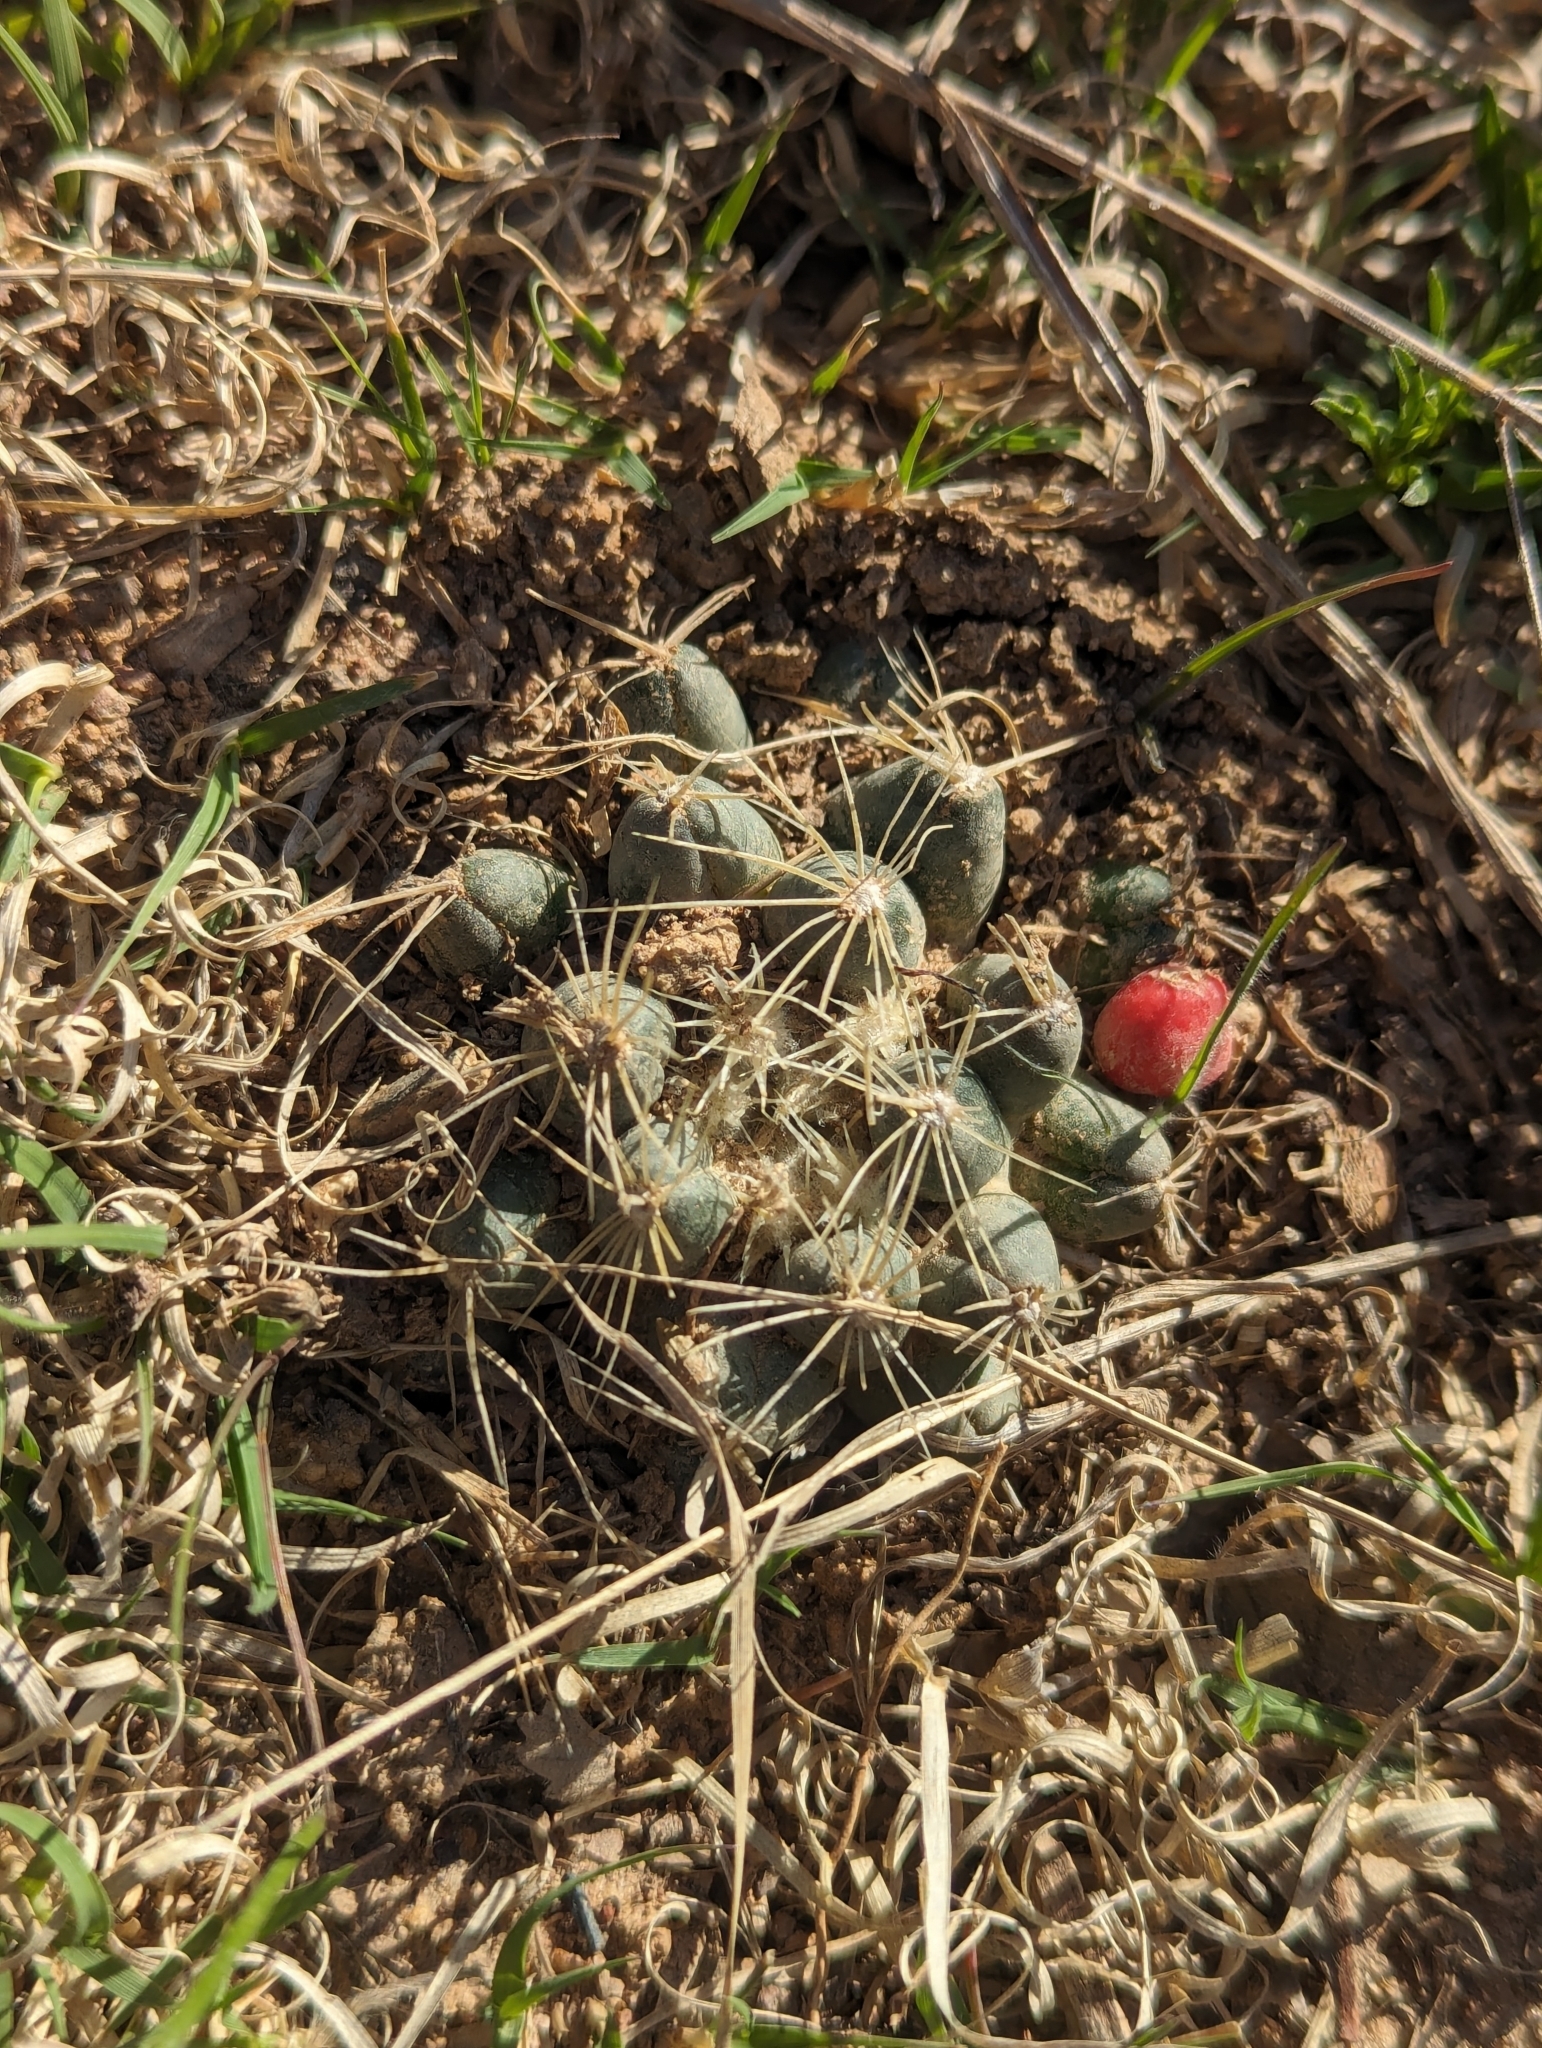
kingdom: Plantae
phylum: Tracheophyta
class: Magnoliopsida
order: Caryophyllales
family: Cactaceae
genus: Pelecyphora
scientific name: Pelecyphora missouriensis
